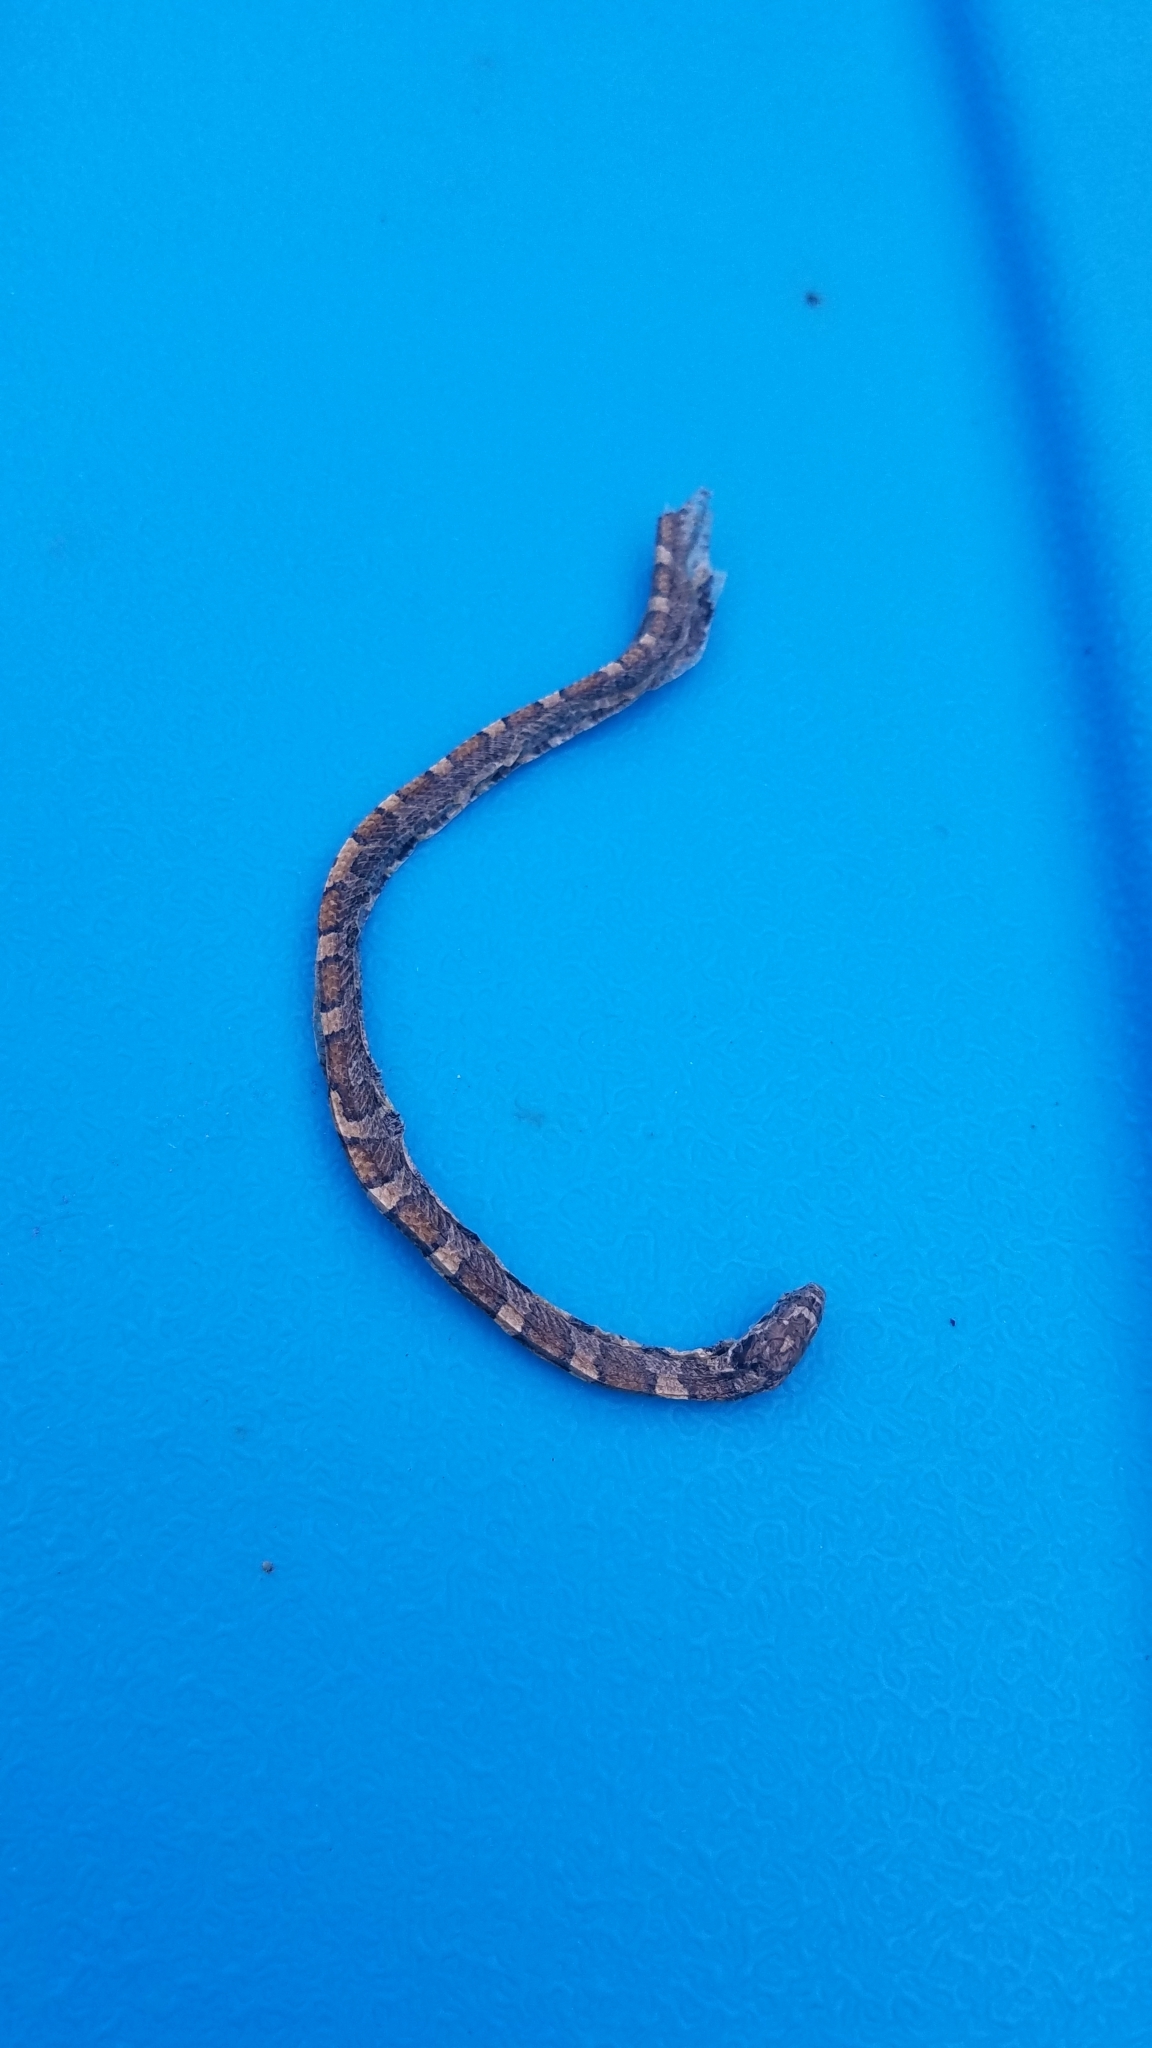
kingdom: Animalia
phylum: Chordata
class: Squamata
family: Colubridae
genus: Lampropeltis
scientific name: Lampropeltis triangulum
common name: Eastern milksnake
